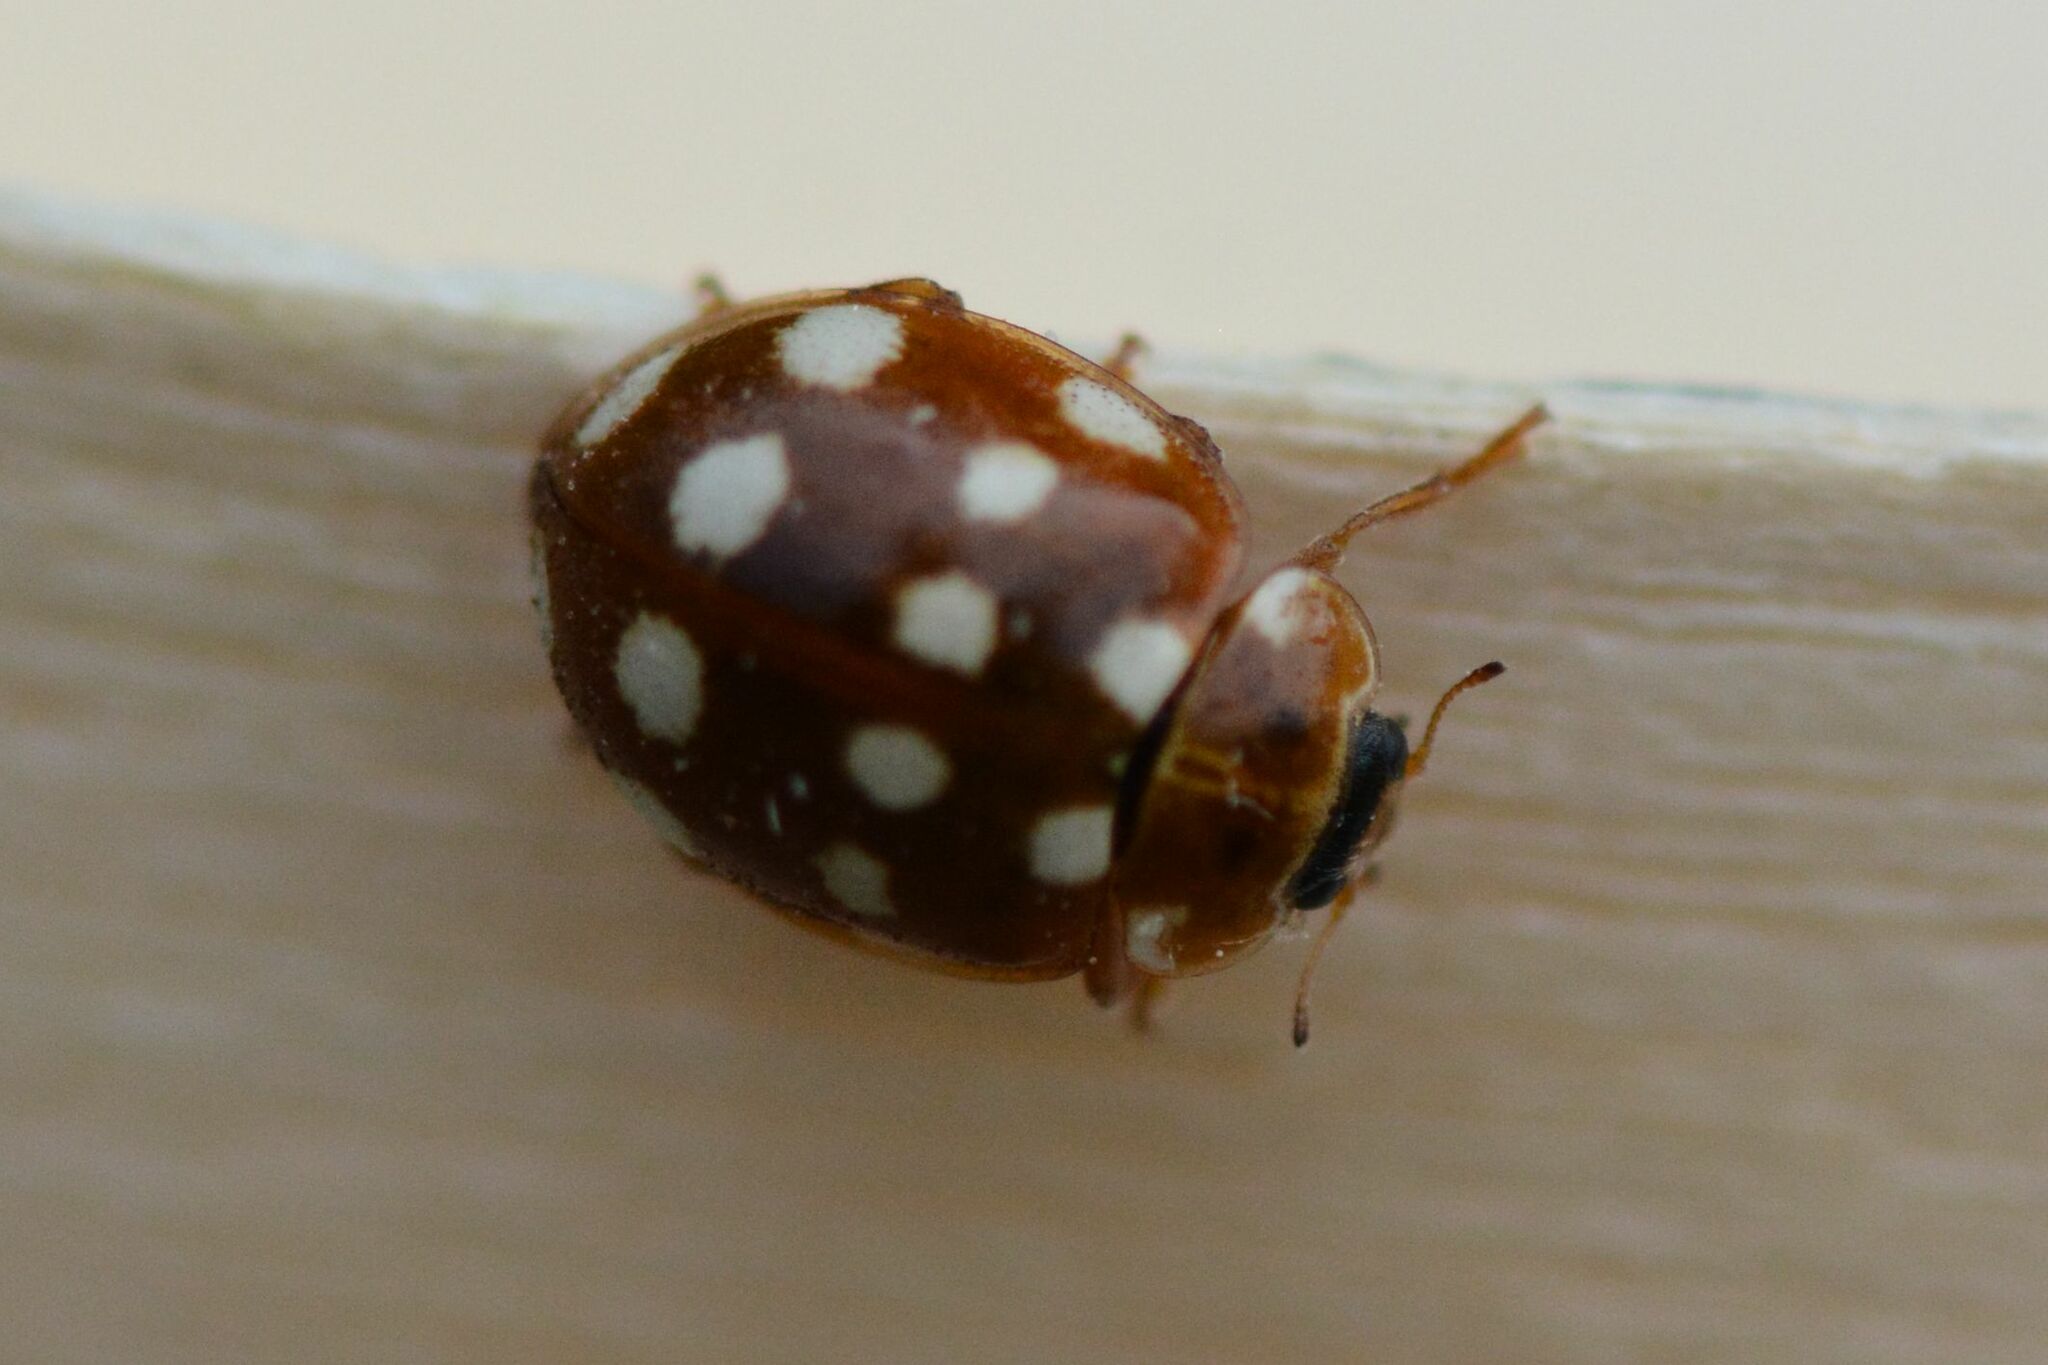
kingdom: Animalia
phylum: Arthropoda
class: Insecta
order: Coleoptera
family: Coccinellidae
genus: Calvia
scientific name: Calvia quatuordecimguttata
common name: Cream-spot ladybird
